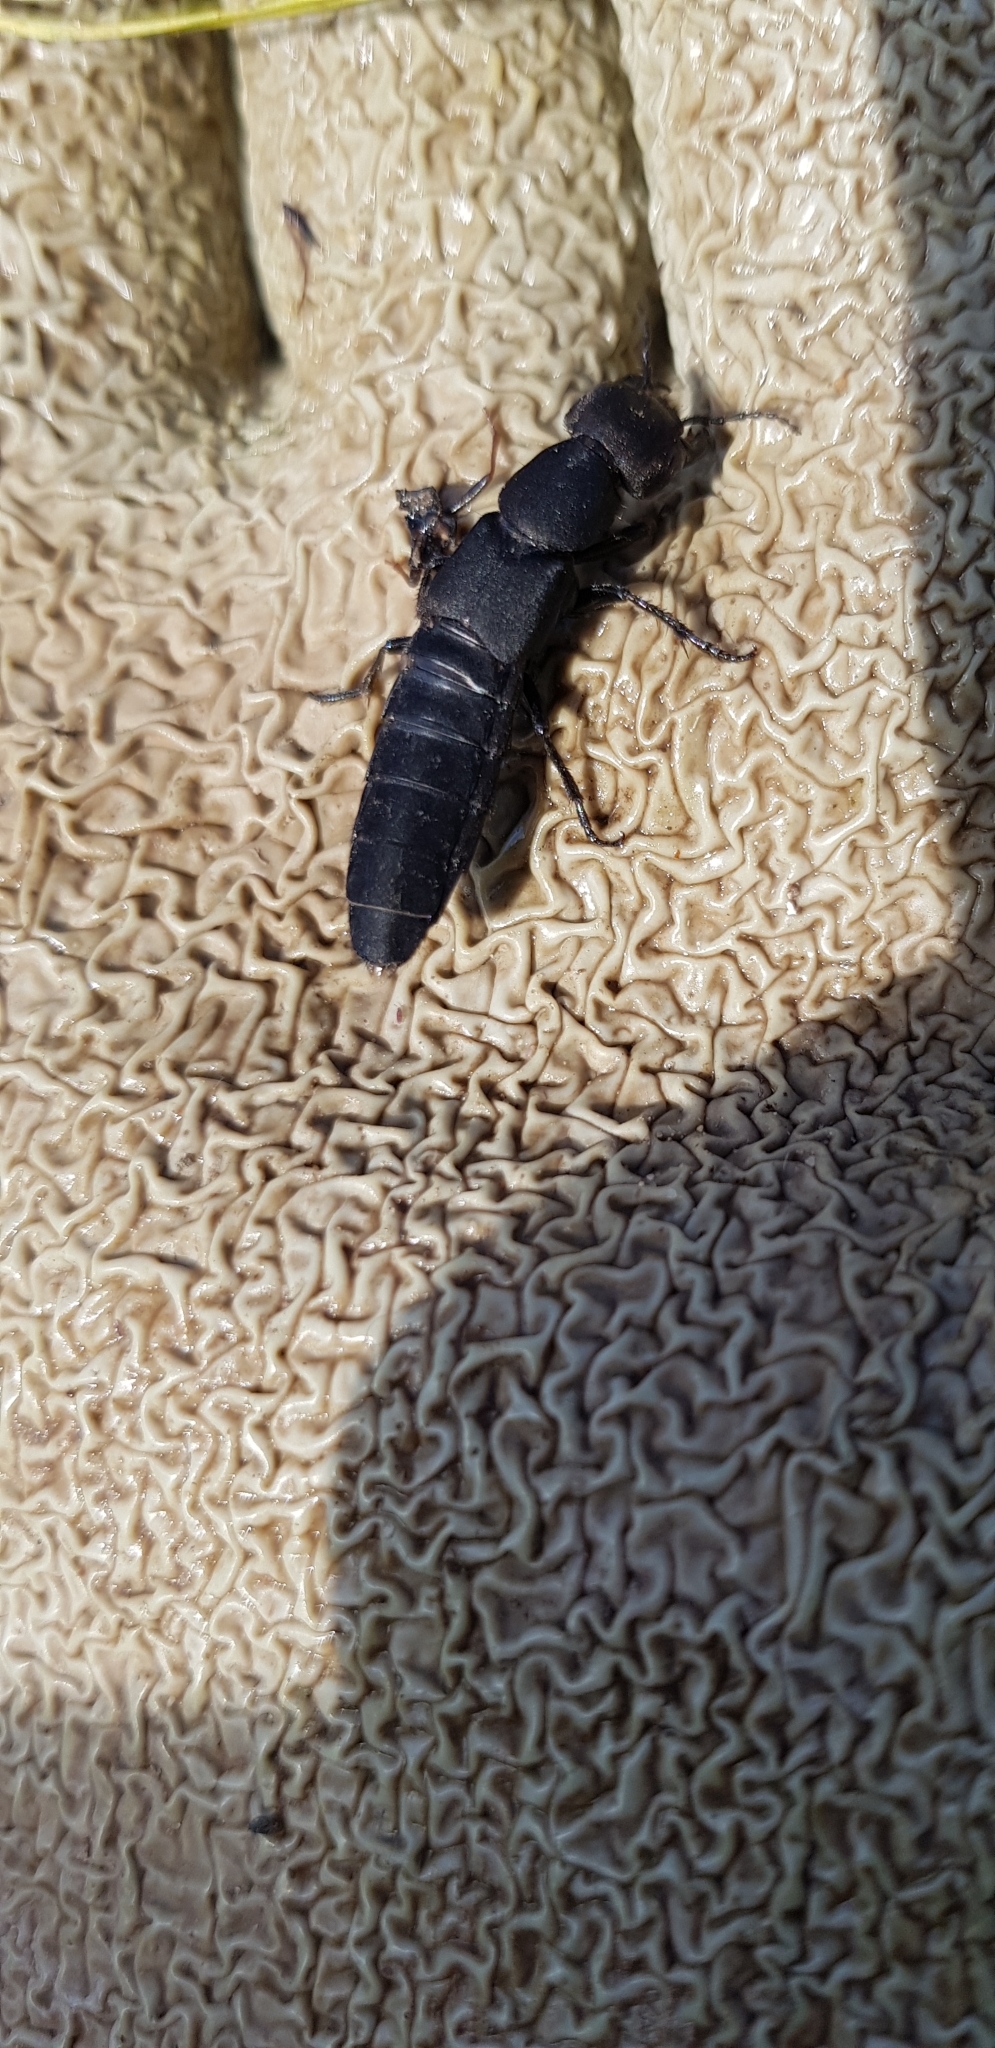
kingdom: Animalia
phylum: Arthropoda
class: Insecta
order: Coleoptera
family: Staphylinidae
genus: Ocypus
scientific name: Ocypus olens
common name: Devil's coach-horse
